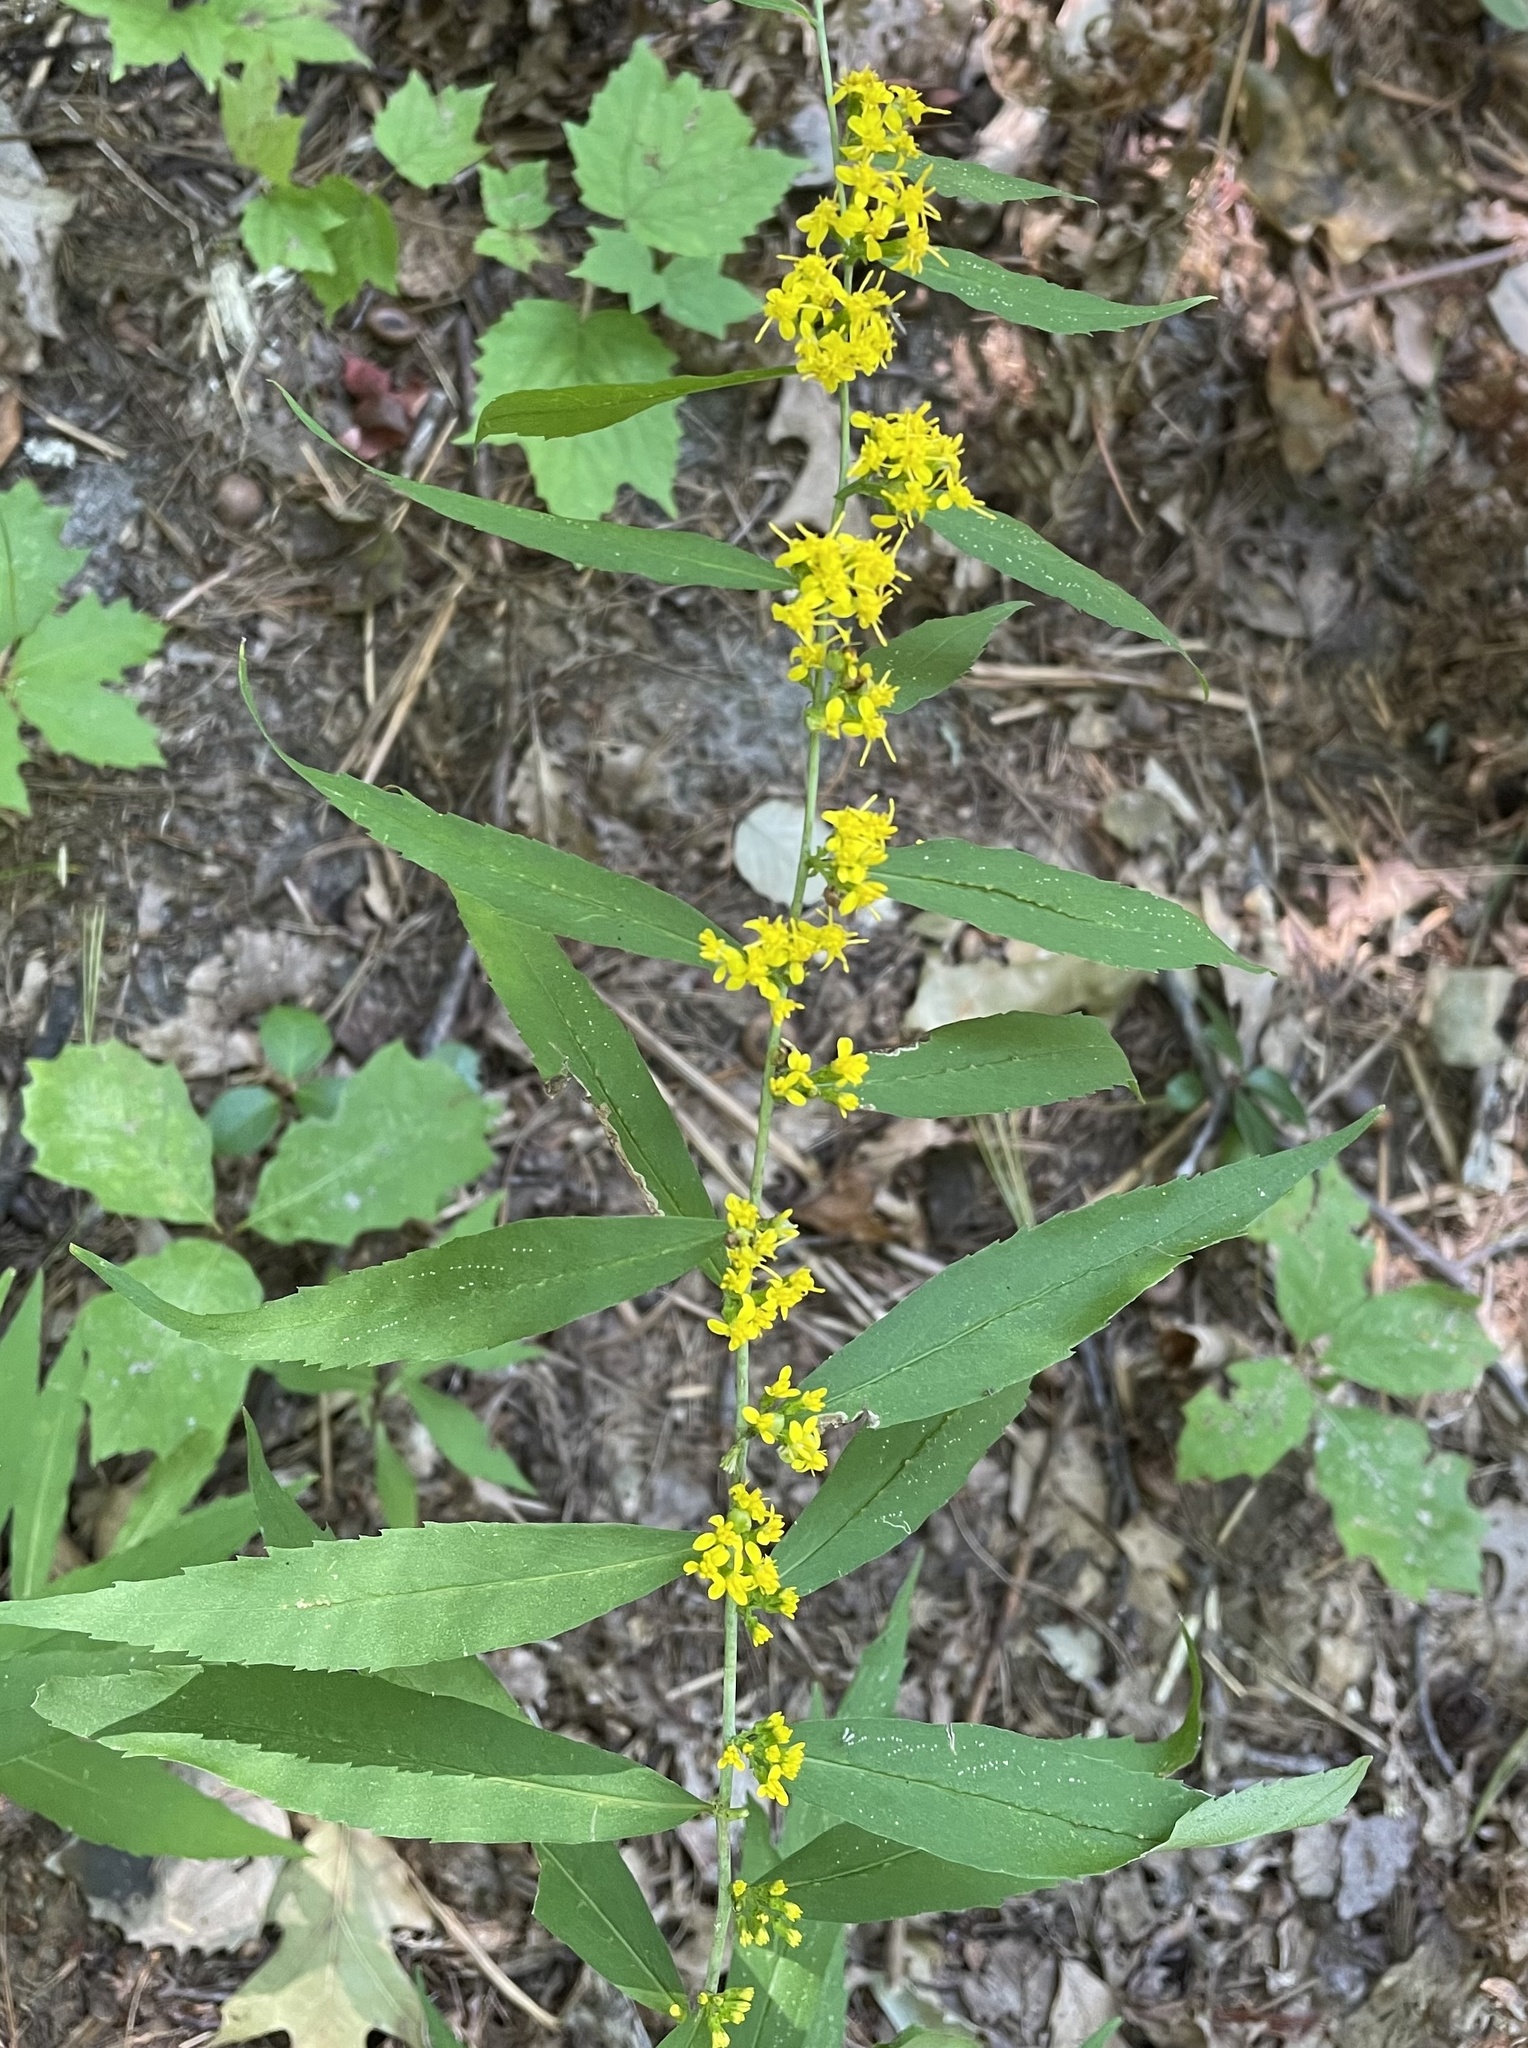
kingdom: Plantae
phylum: Tracheophyta
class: Magnoliopsida
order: Asterales
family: Asteraceae
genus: Solidago
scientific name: Solidago caesia
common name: Woodland goldenrod
